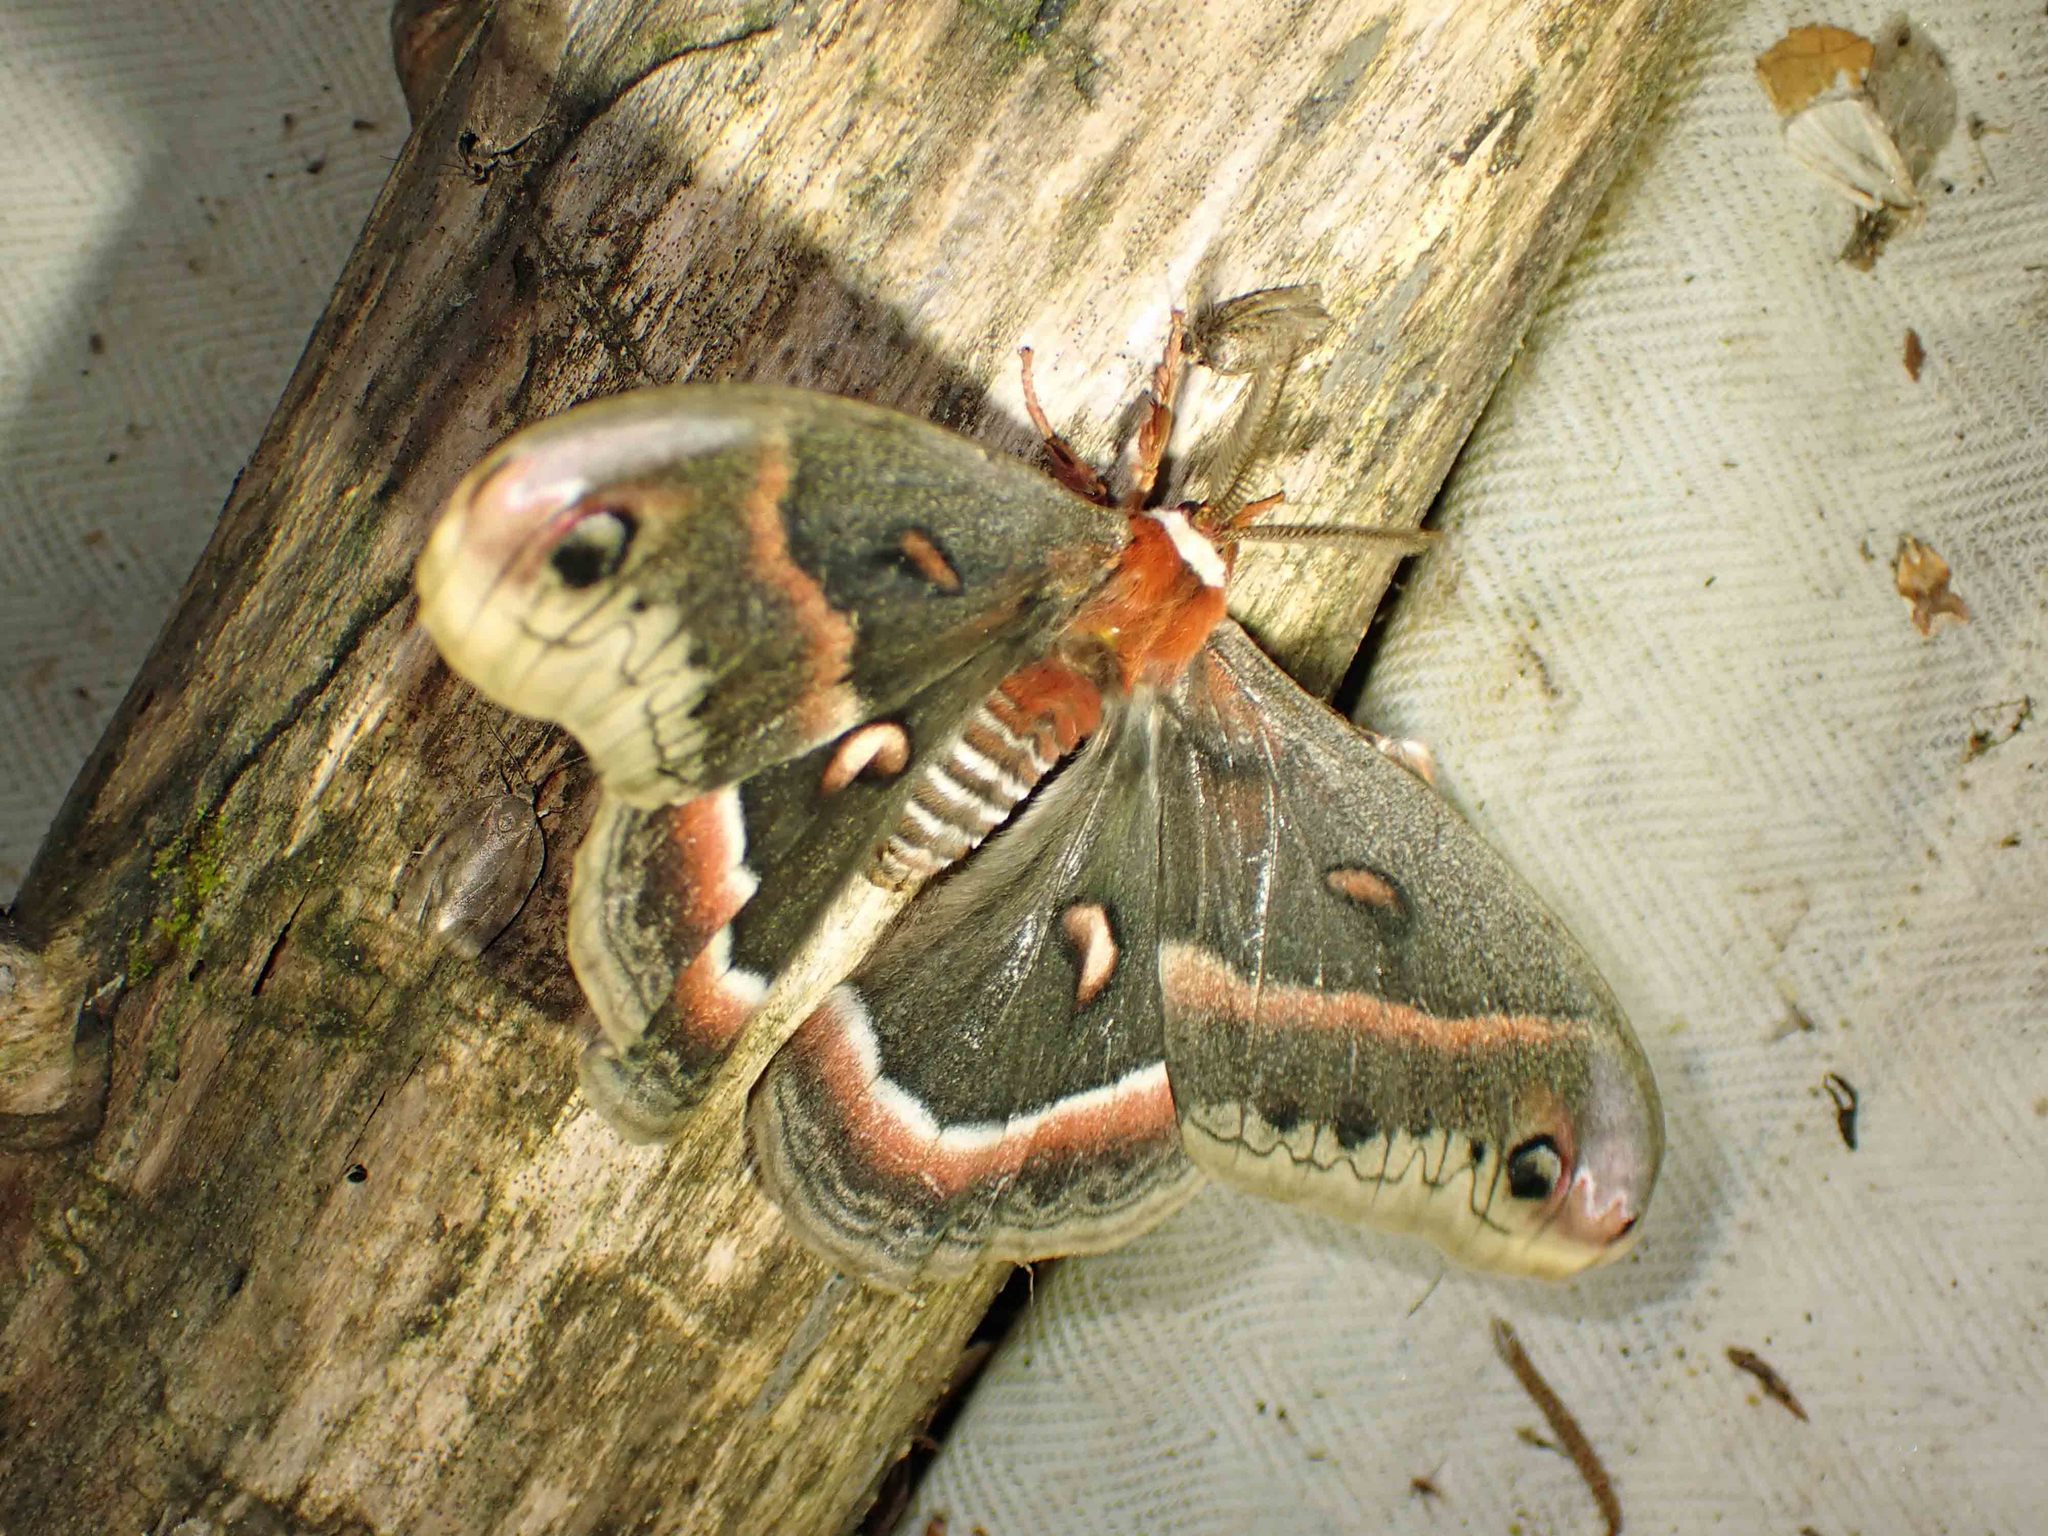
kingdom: Animalia
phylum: Arthropoda
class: Insecta
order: Lepidoptera
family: Saturniidae
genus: Hyalophora
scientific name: Hyalophora cecropia
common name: Cecropia silkmoth
